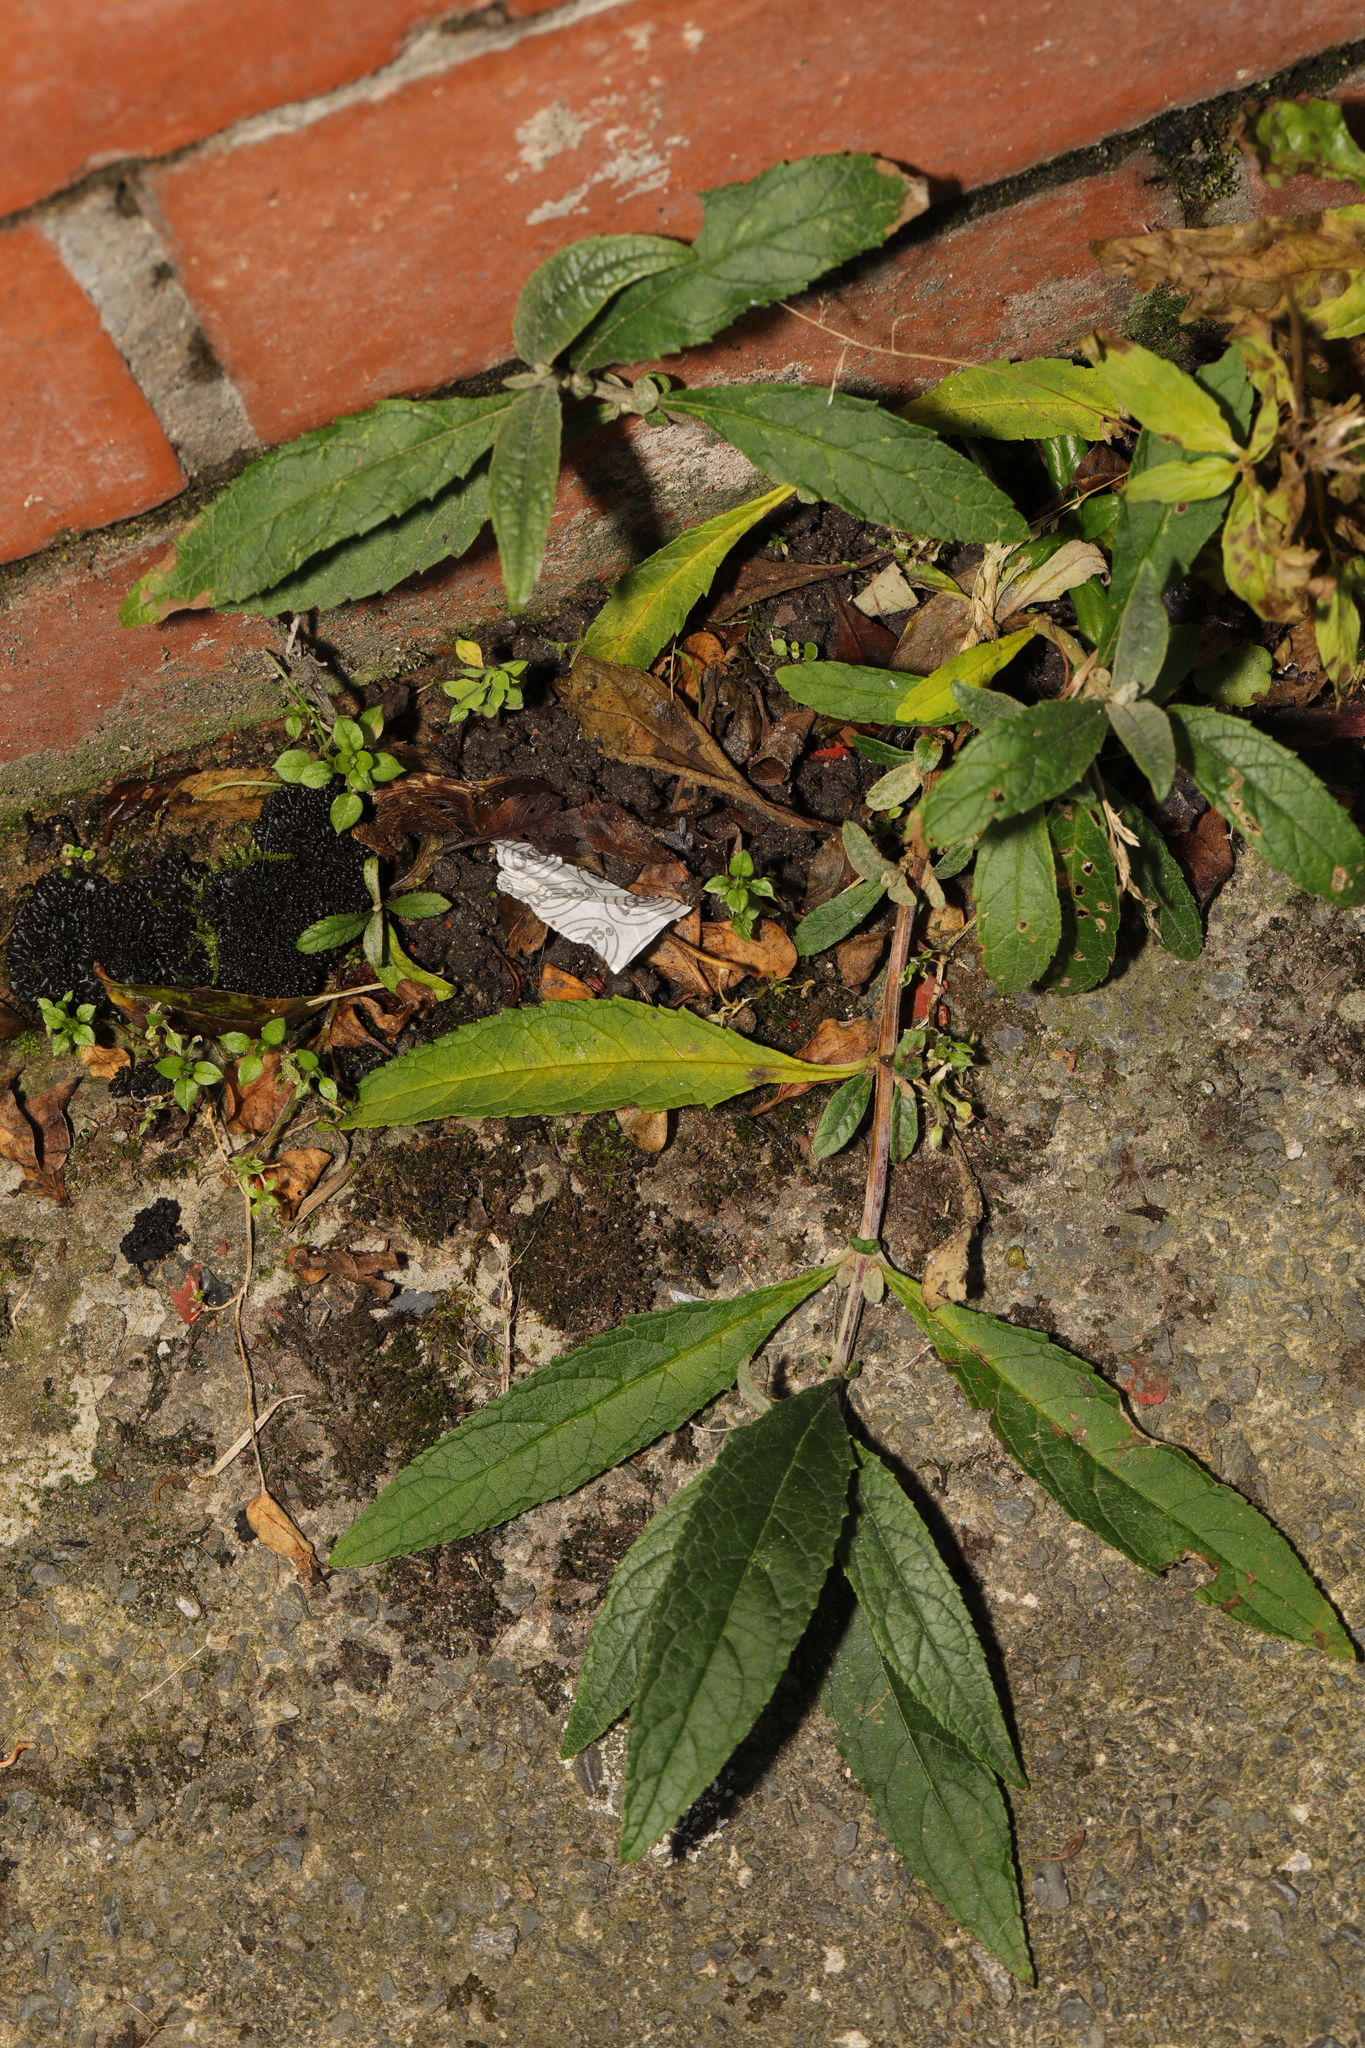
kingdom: Plantae
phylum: Tracheophyta
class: Magnoliopsida
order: Lamiales
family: Scrophulariaceae
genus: Buddleja
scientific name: Buddleja davidii
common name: Butterfly-bush
